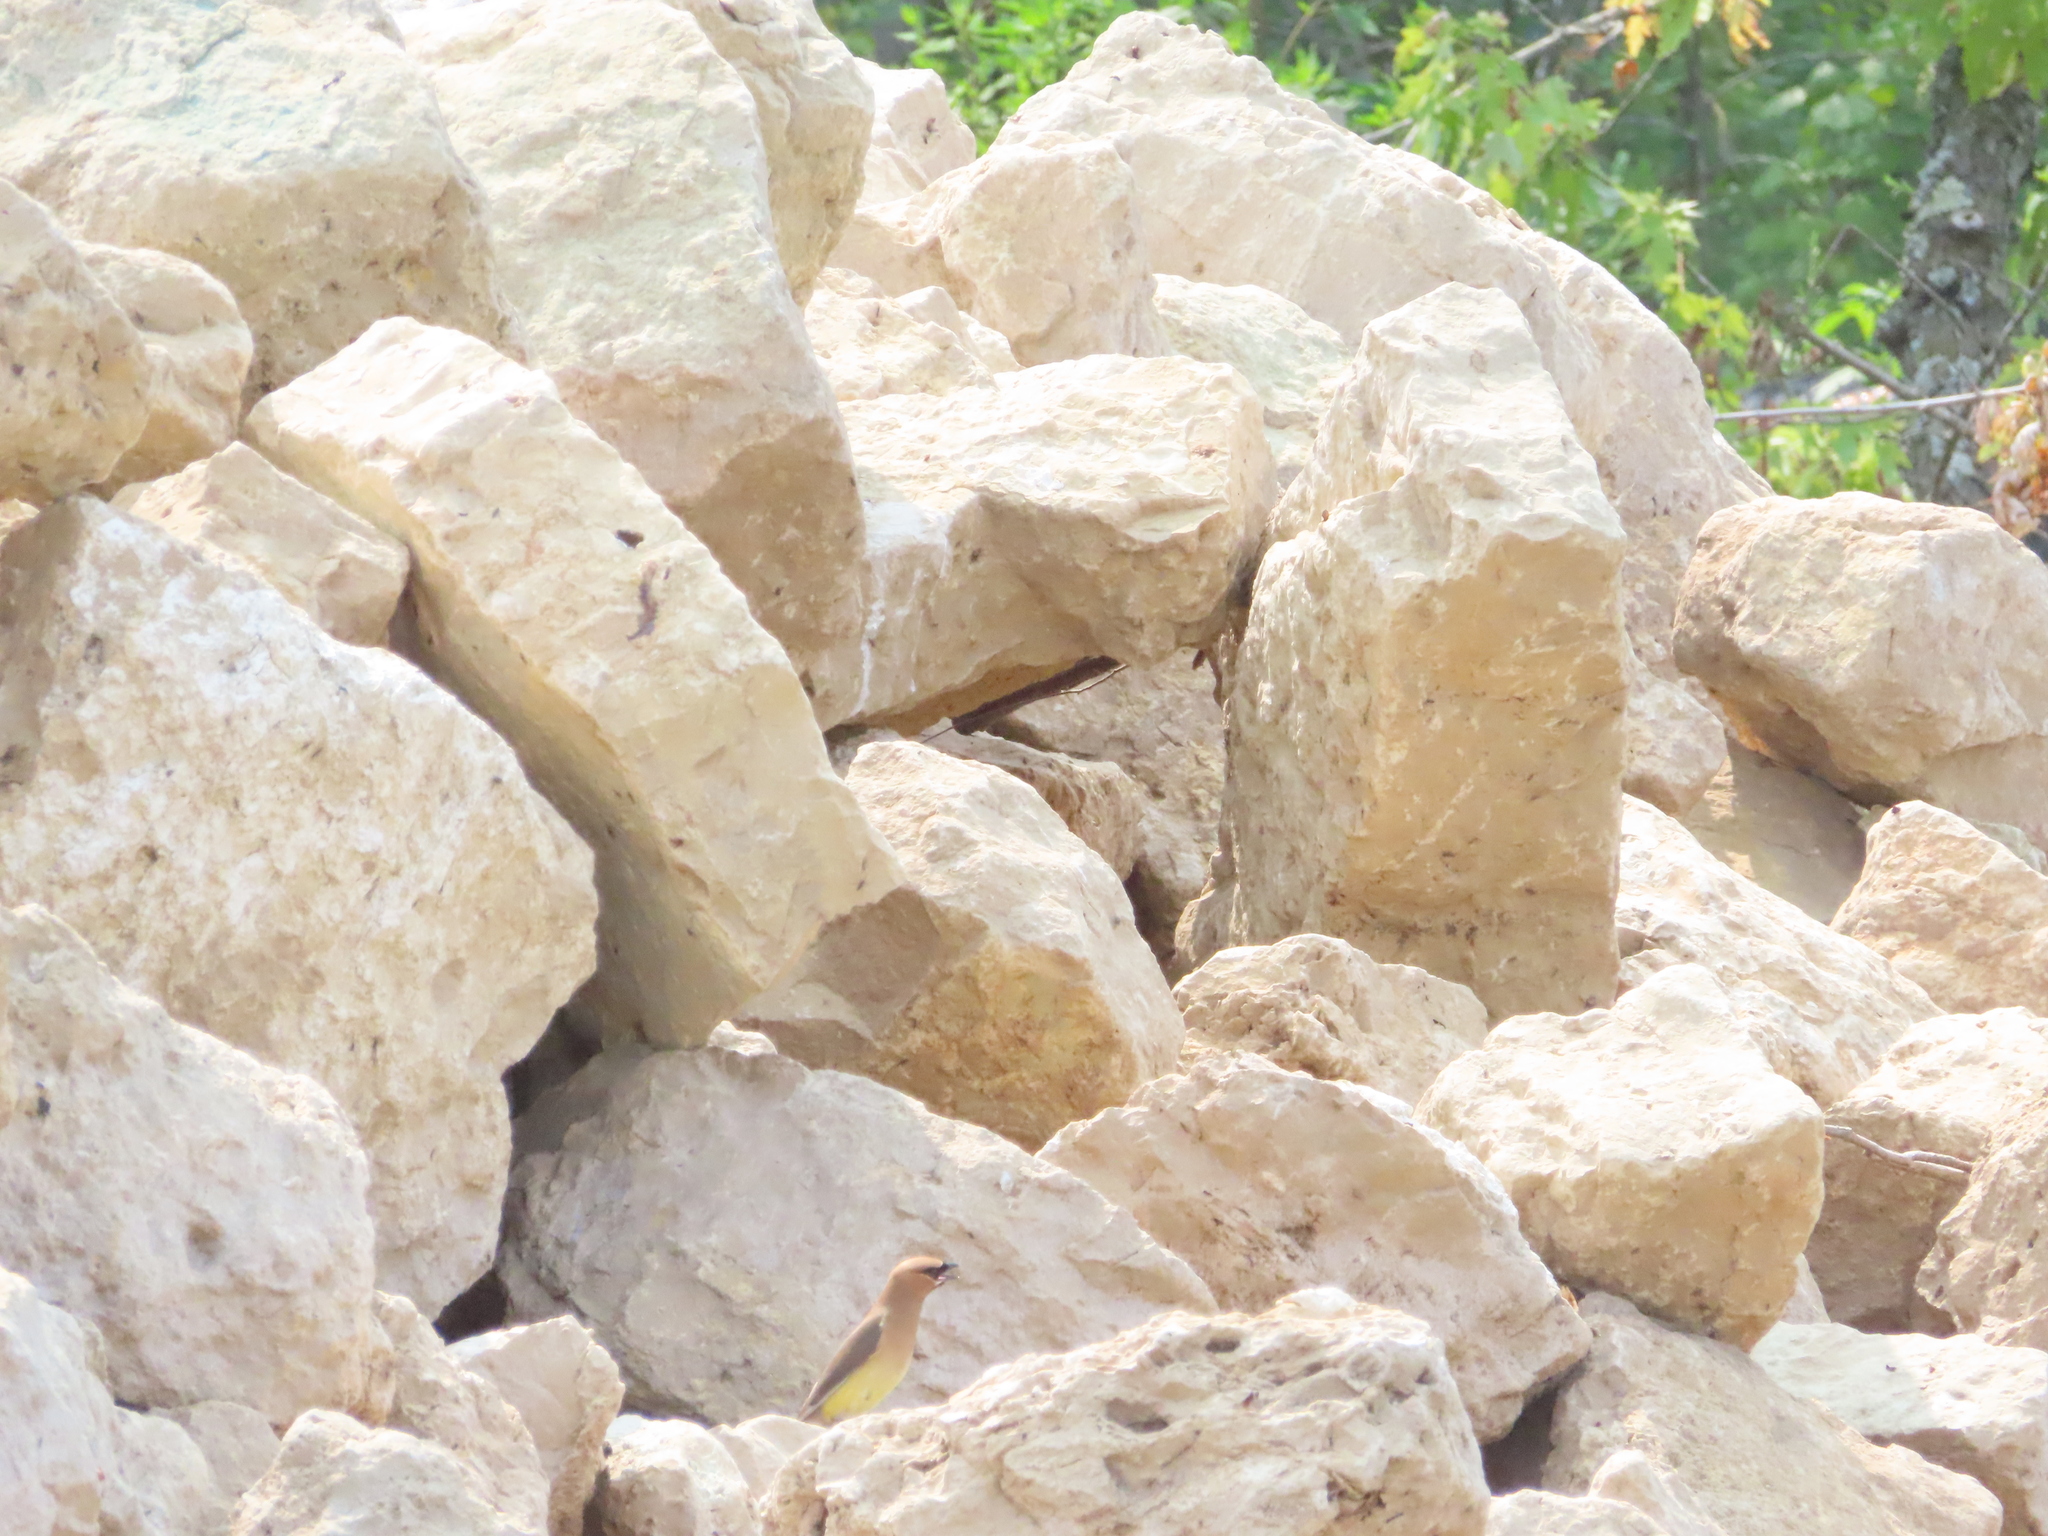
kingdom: Animalia
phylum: Chordata
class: Aves
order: Passeriformes
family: Bombycillidae
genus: Bombycilla
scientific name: Bombycilla cedrorum
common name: Cedar waxwing
